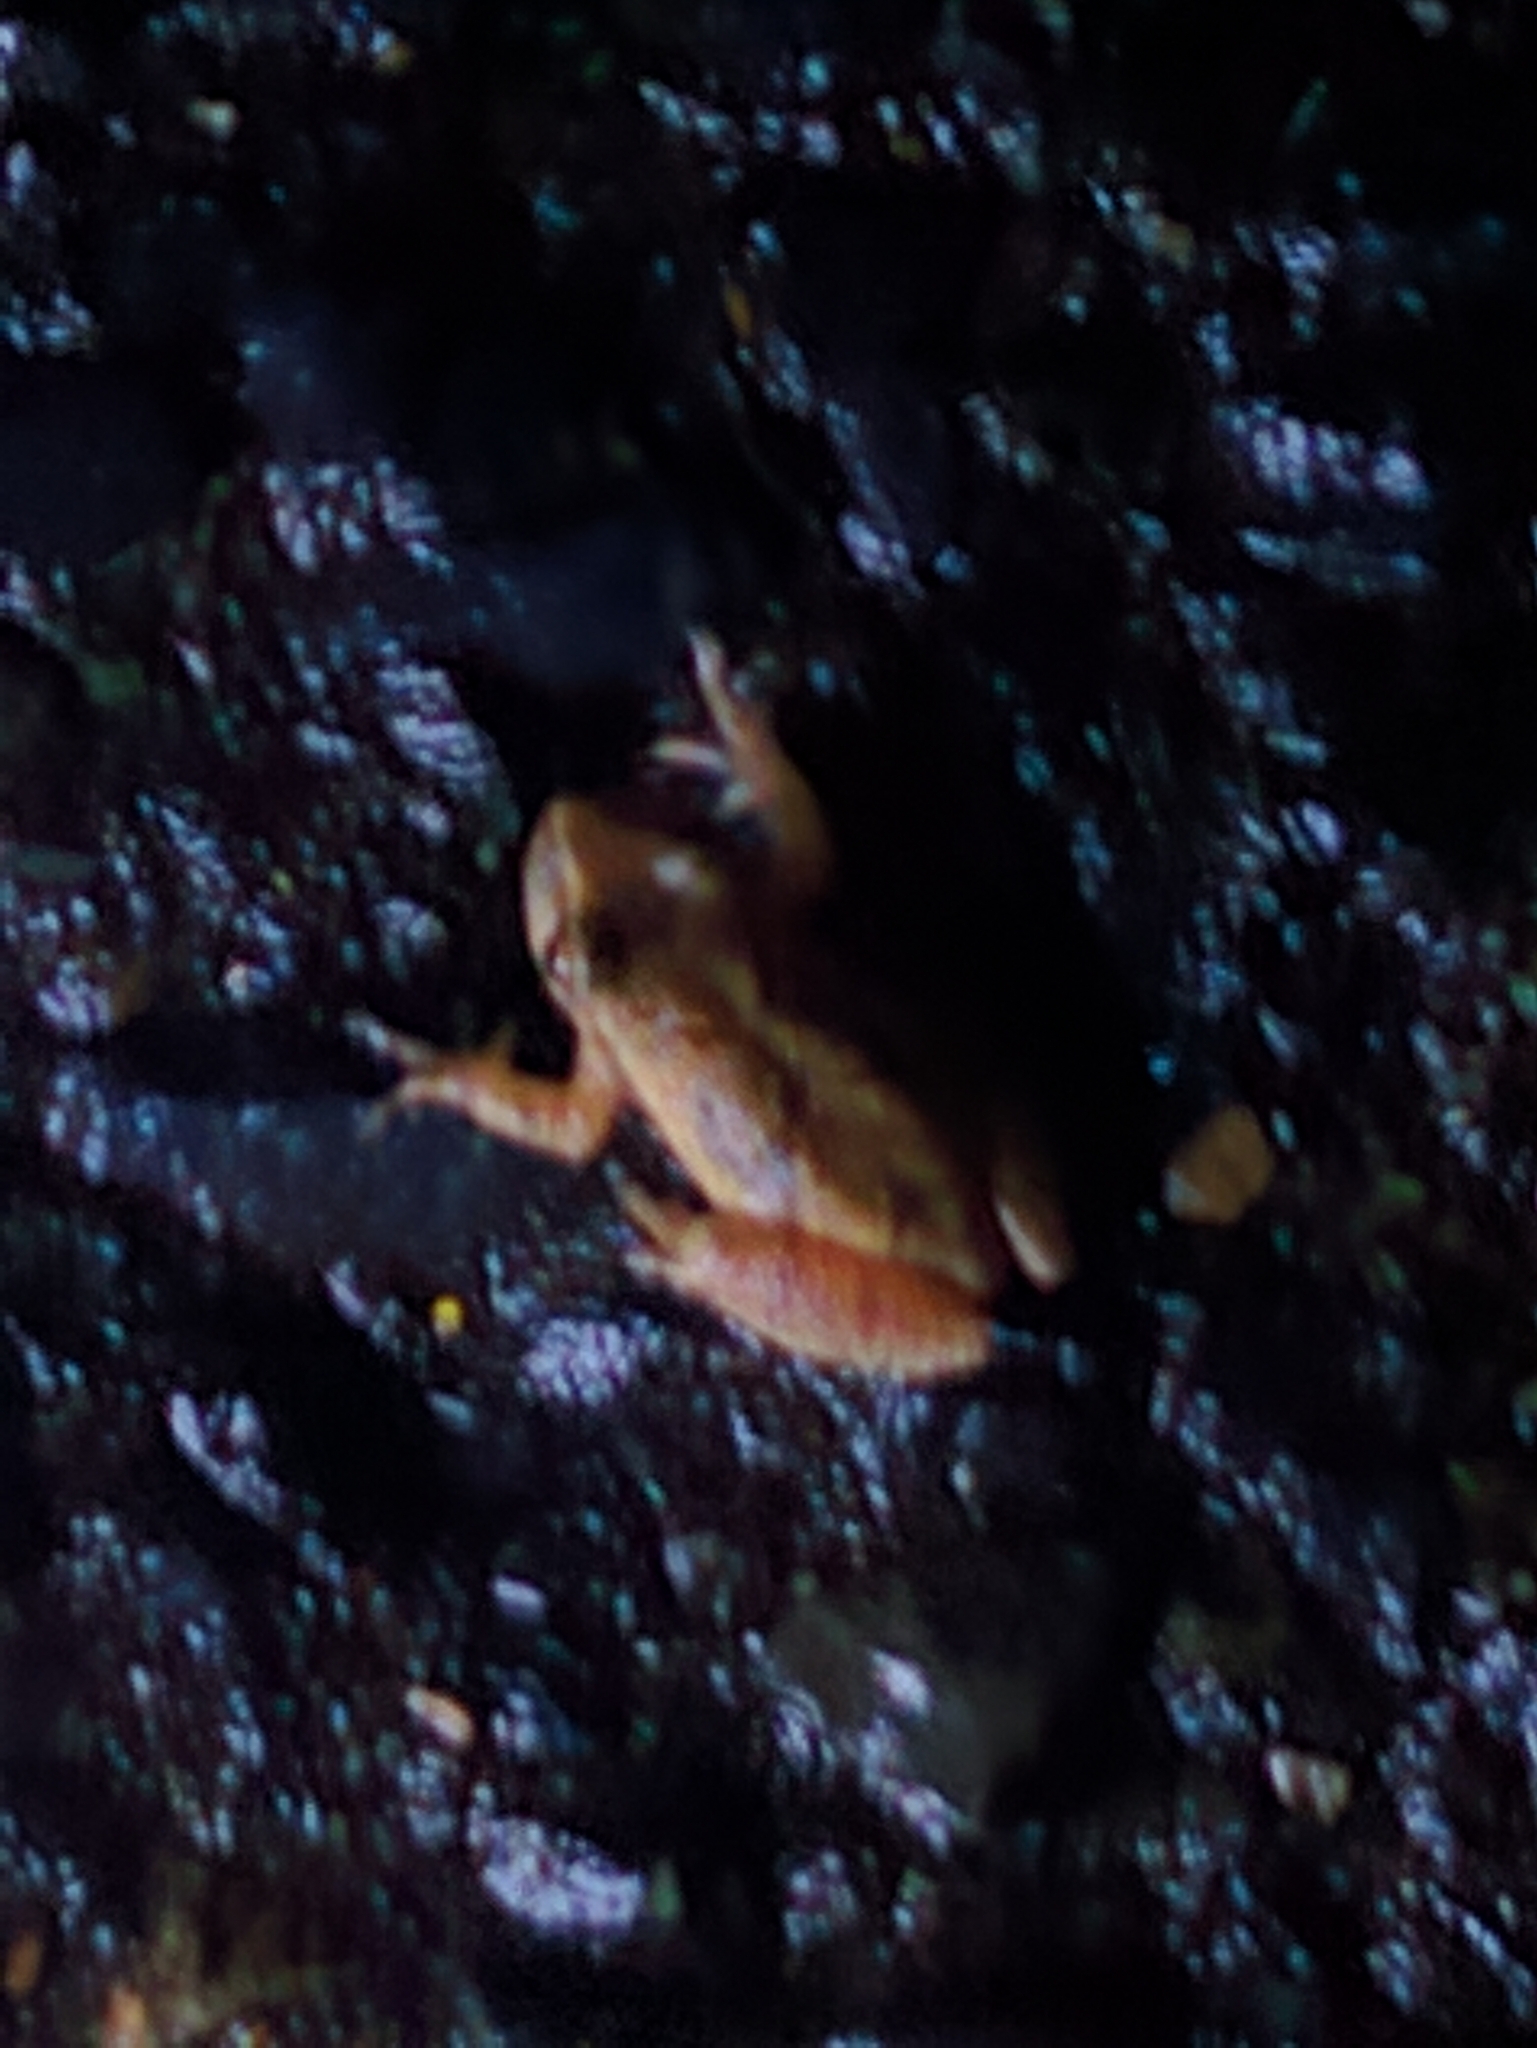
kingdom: Animalia
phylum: Chordata
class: Amphibia
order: Anura
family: Hylidae
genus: Pseudacris
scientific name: Pseudacris crucifer
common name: Spring peeper
